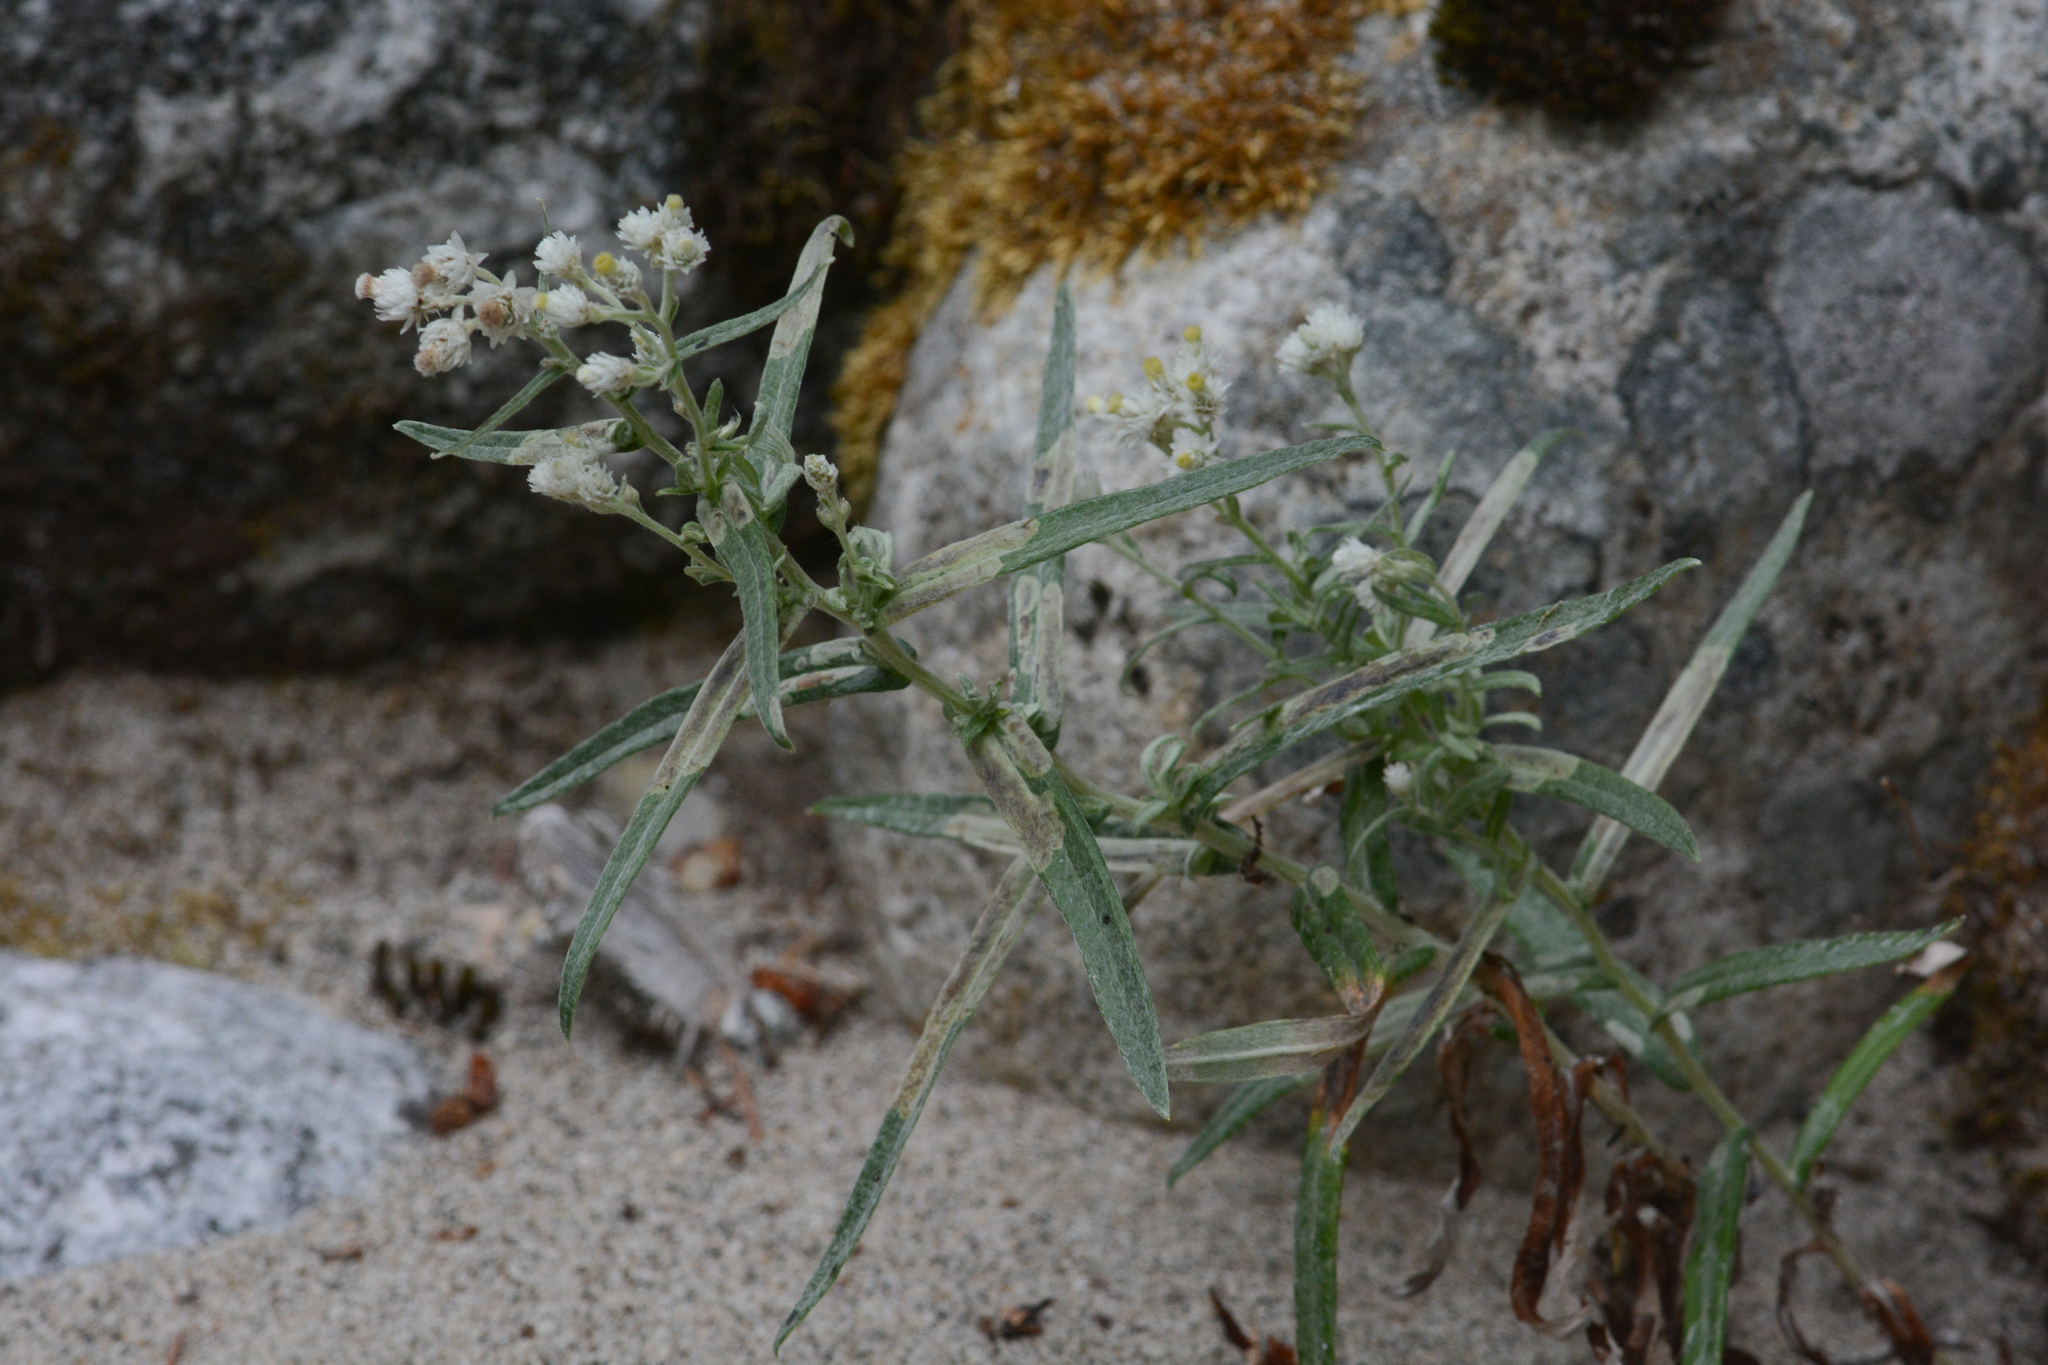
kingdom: Plantae
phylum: Tracheophyta
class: Magnoliopsida
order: Asterales
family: Asteraceae
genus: Anaphalis
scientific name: Anaphalis margaritacea
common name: Pearly everlasting
